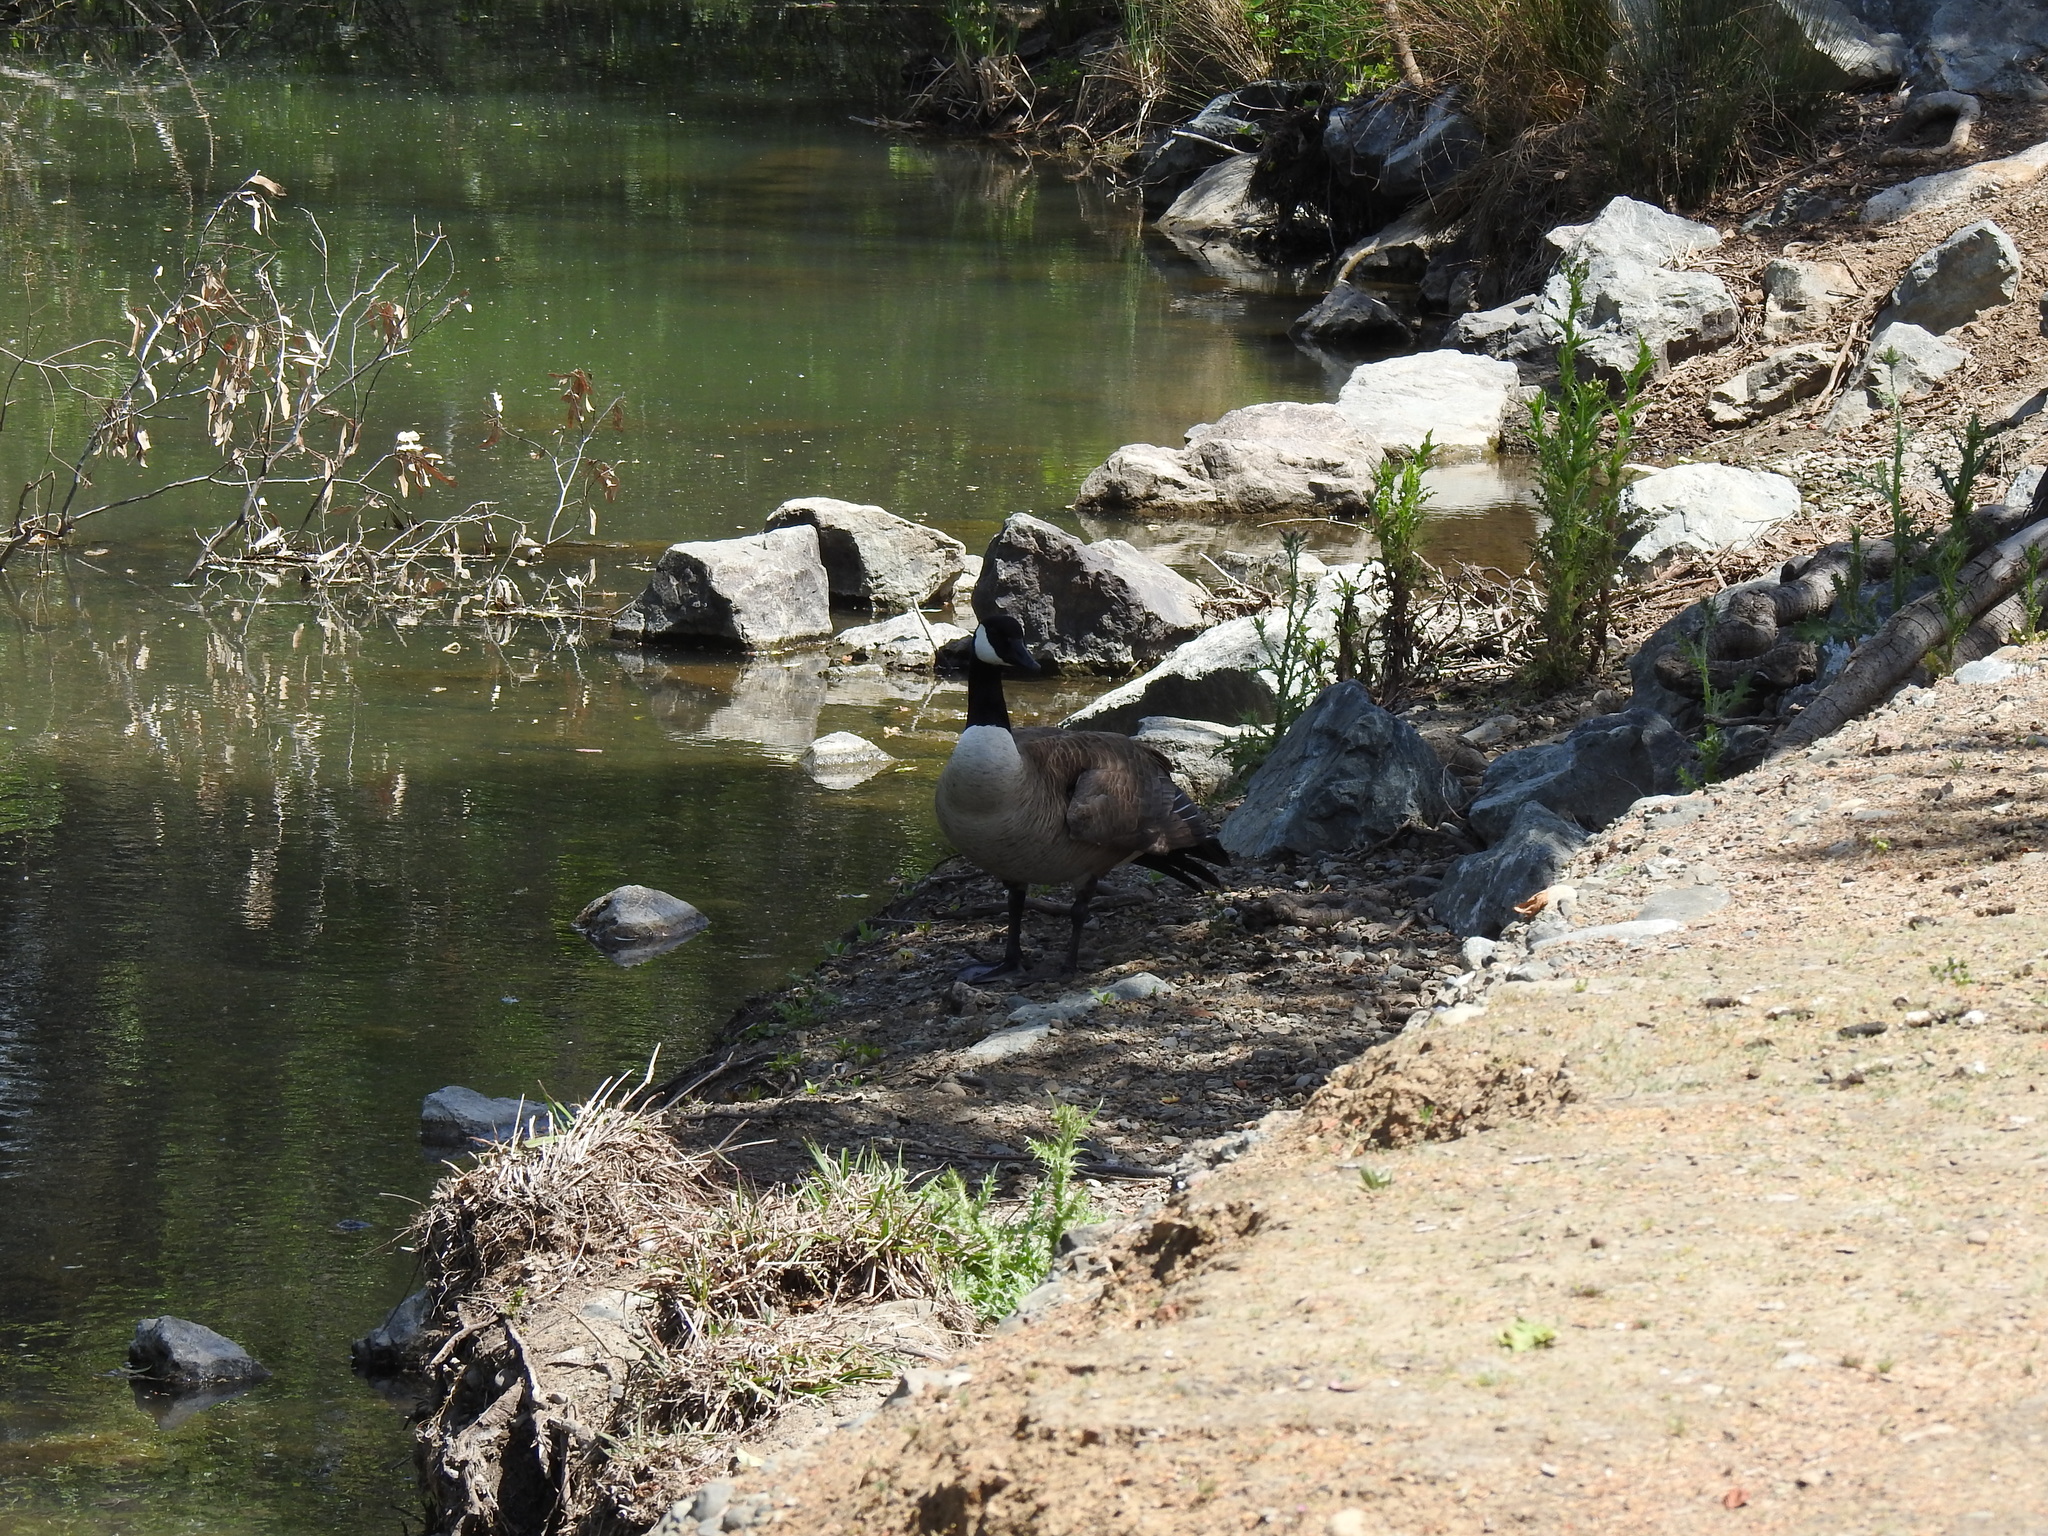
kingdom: Animalia
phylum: Chordata
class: Aves
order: Anseriformes
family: Anatidae
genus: Branta
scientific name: Branta canadensis
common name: Canada goose
